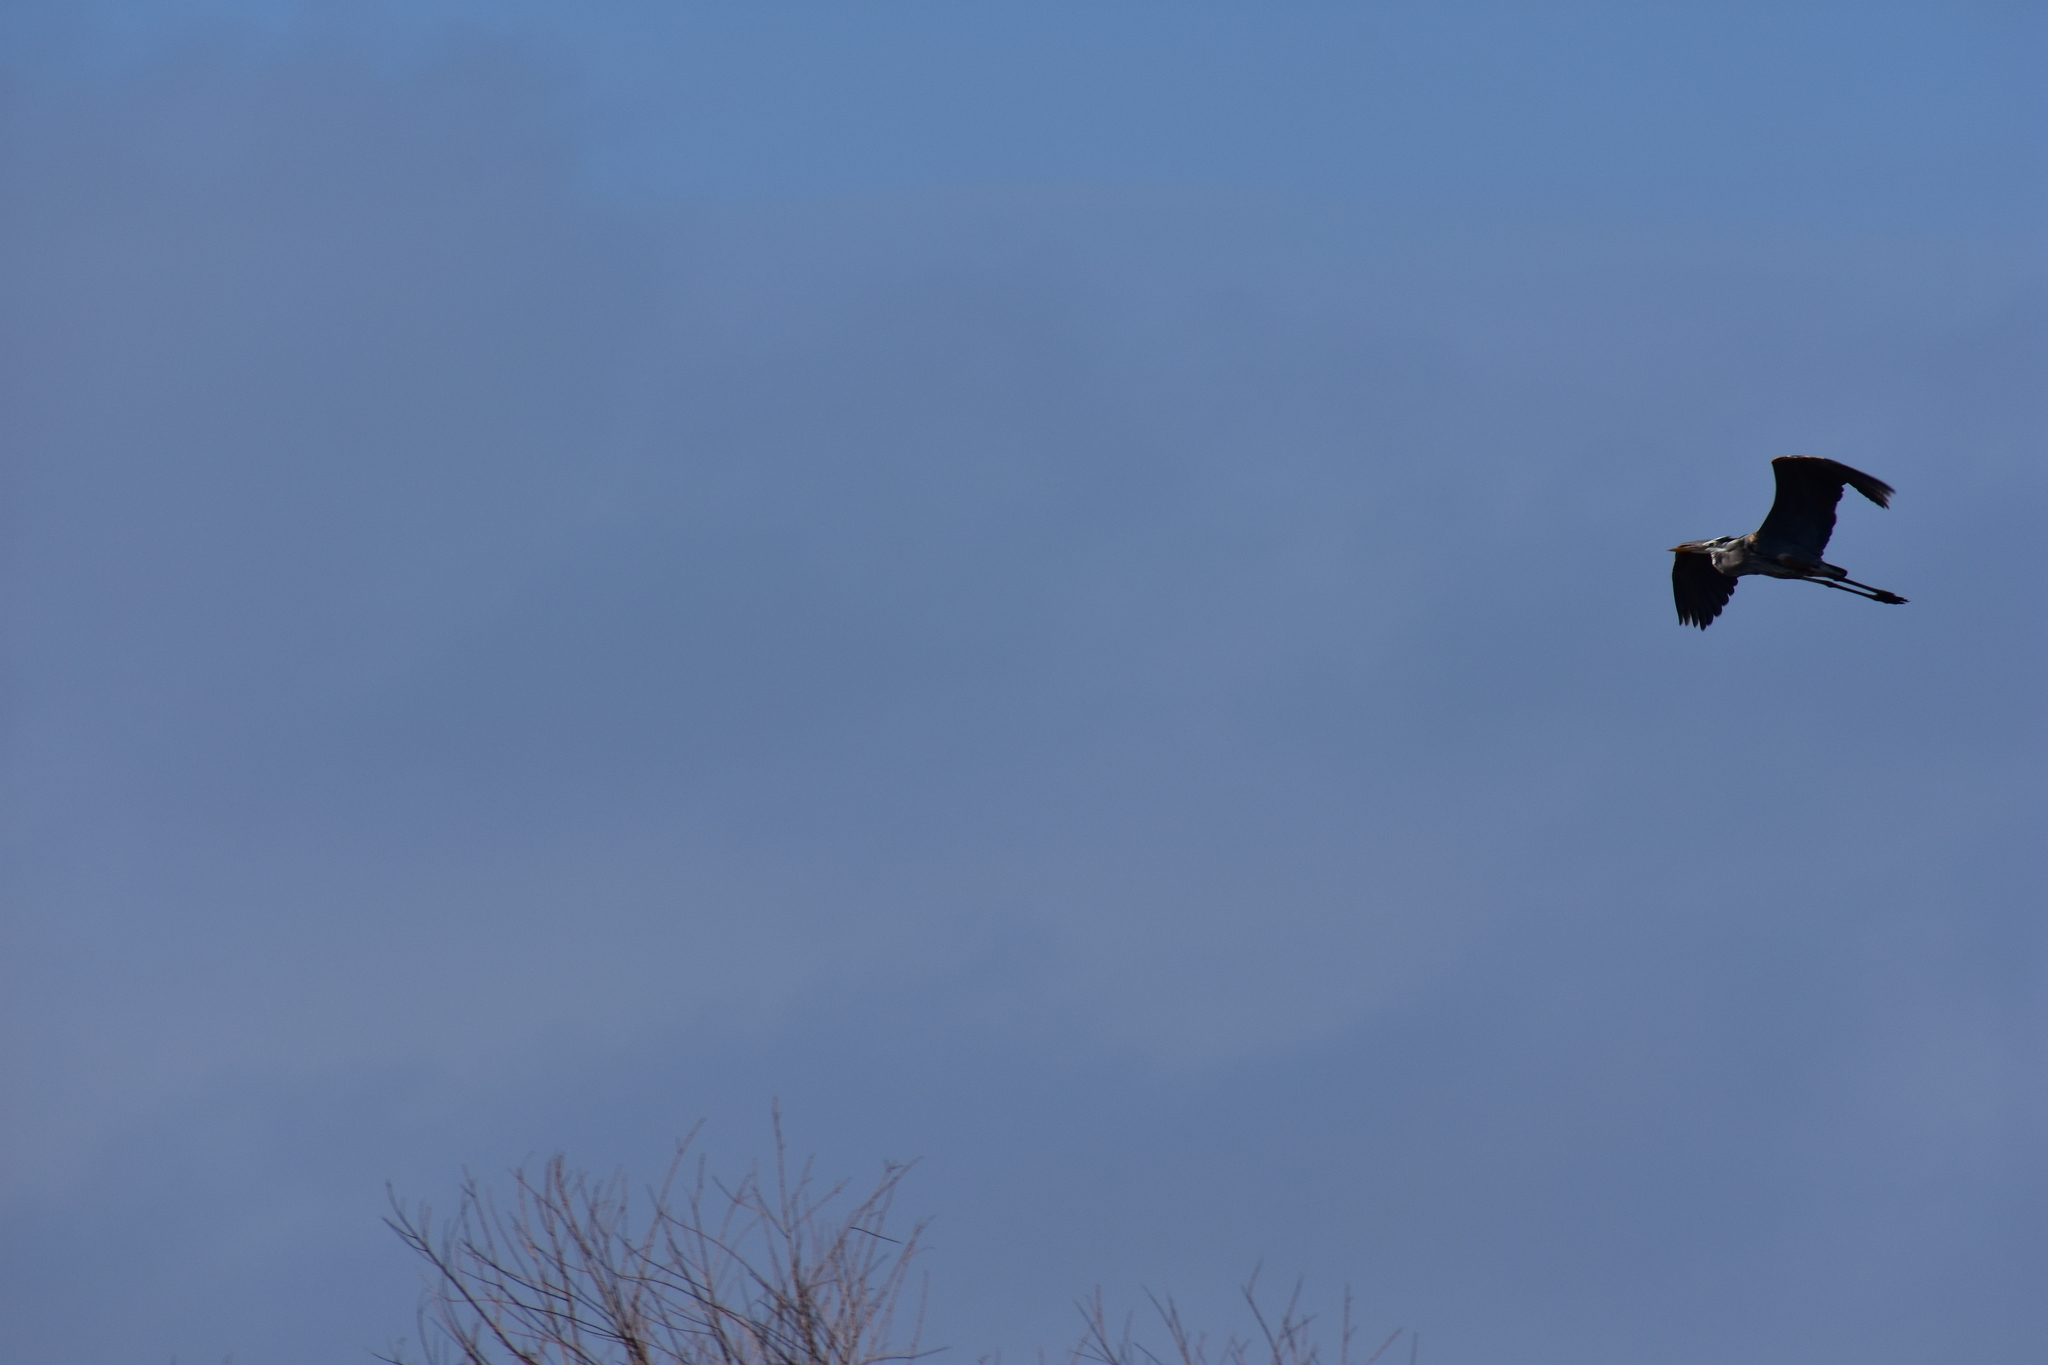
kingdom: Animalia
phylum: Chordata
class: Aves
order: Pelecaniformes
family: Ardeidae
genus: Ardea
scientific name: Ardea herodias
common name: Great blue heron
